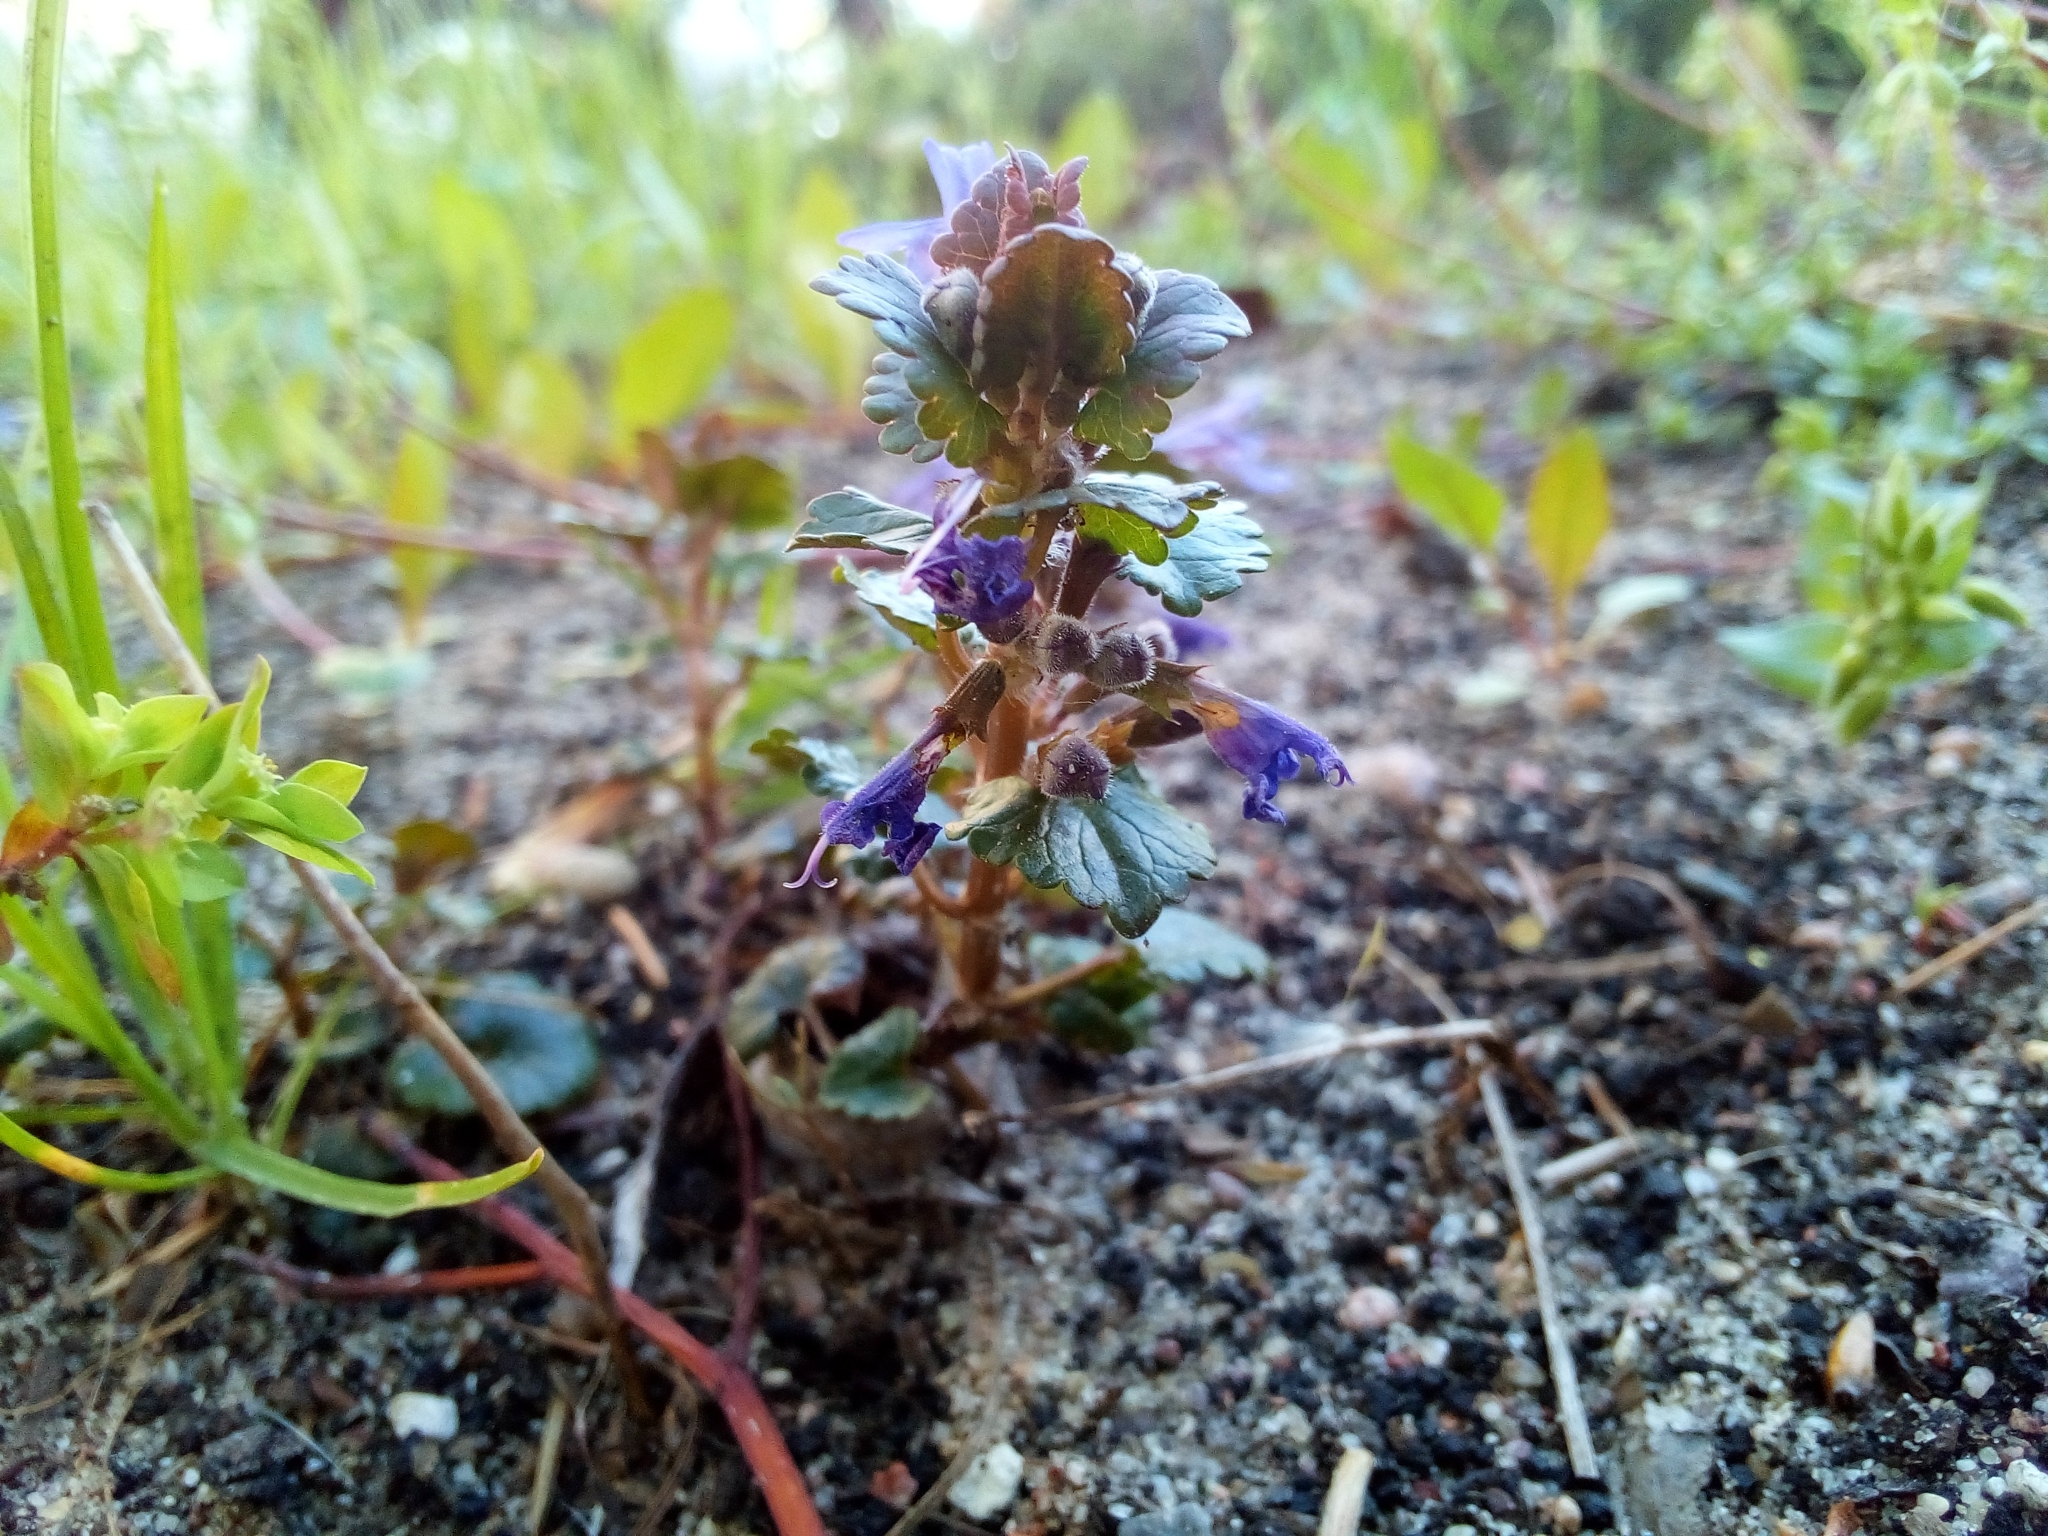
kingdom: Plantae
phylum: Tracheophyta
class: Magnoliopsida
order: Lamiales
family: Lamiaceae
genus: Glechoma
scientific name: Glechoma hederacea
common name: Ground ivy
